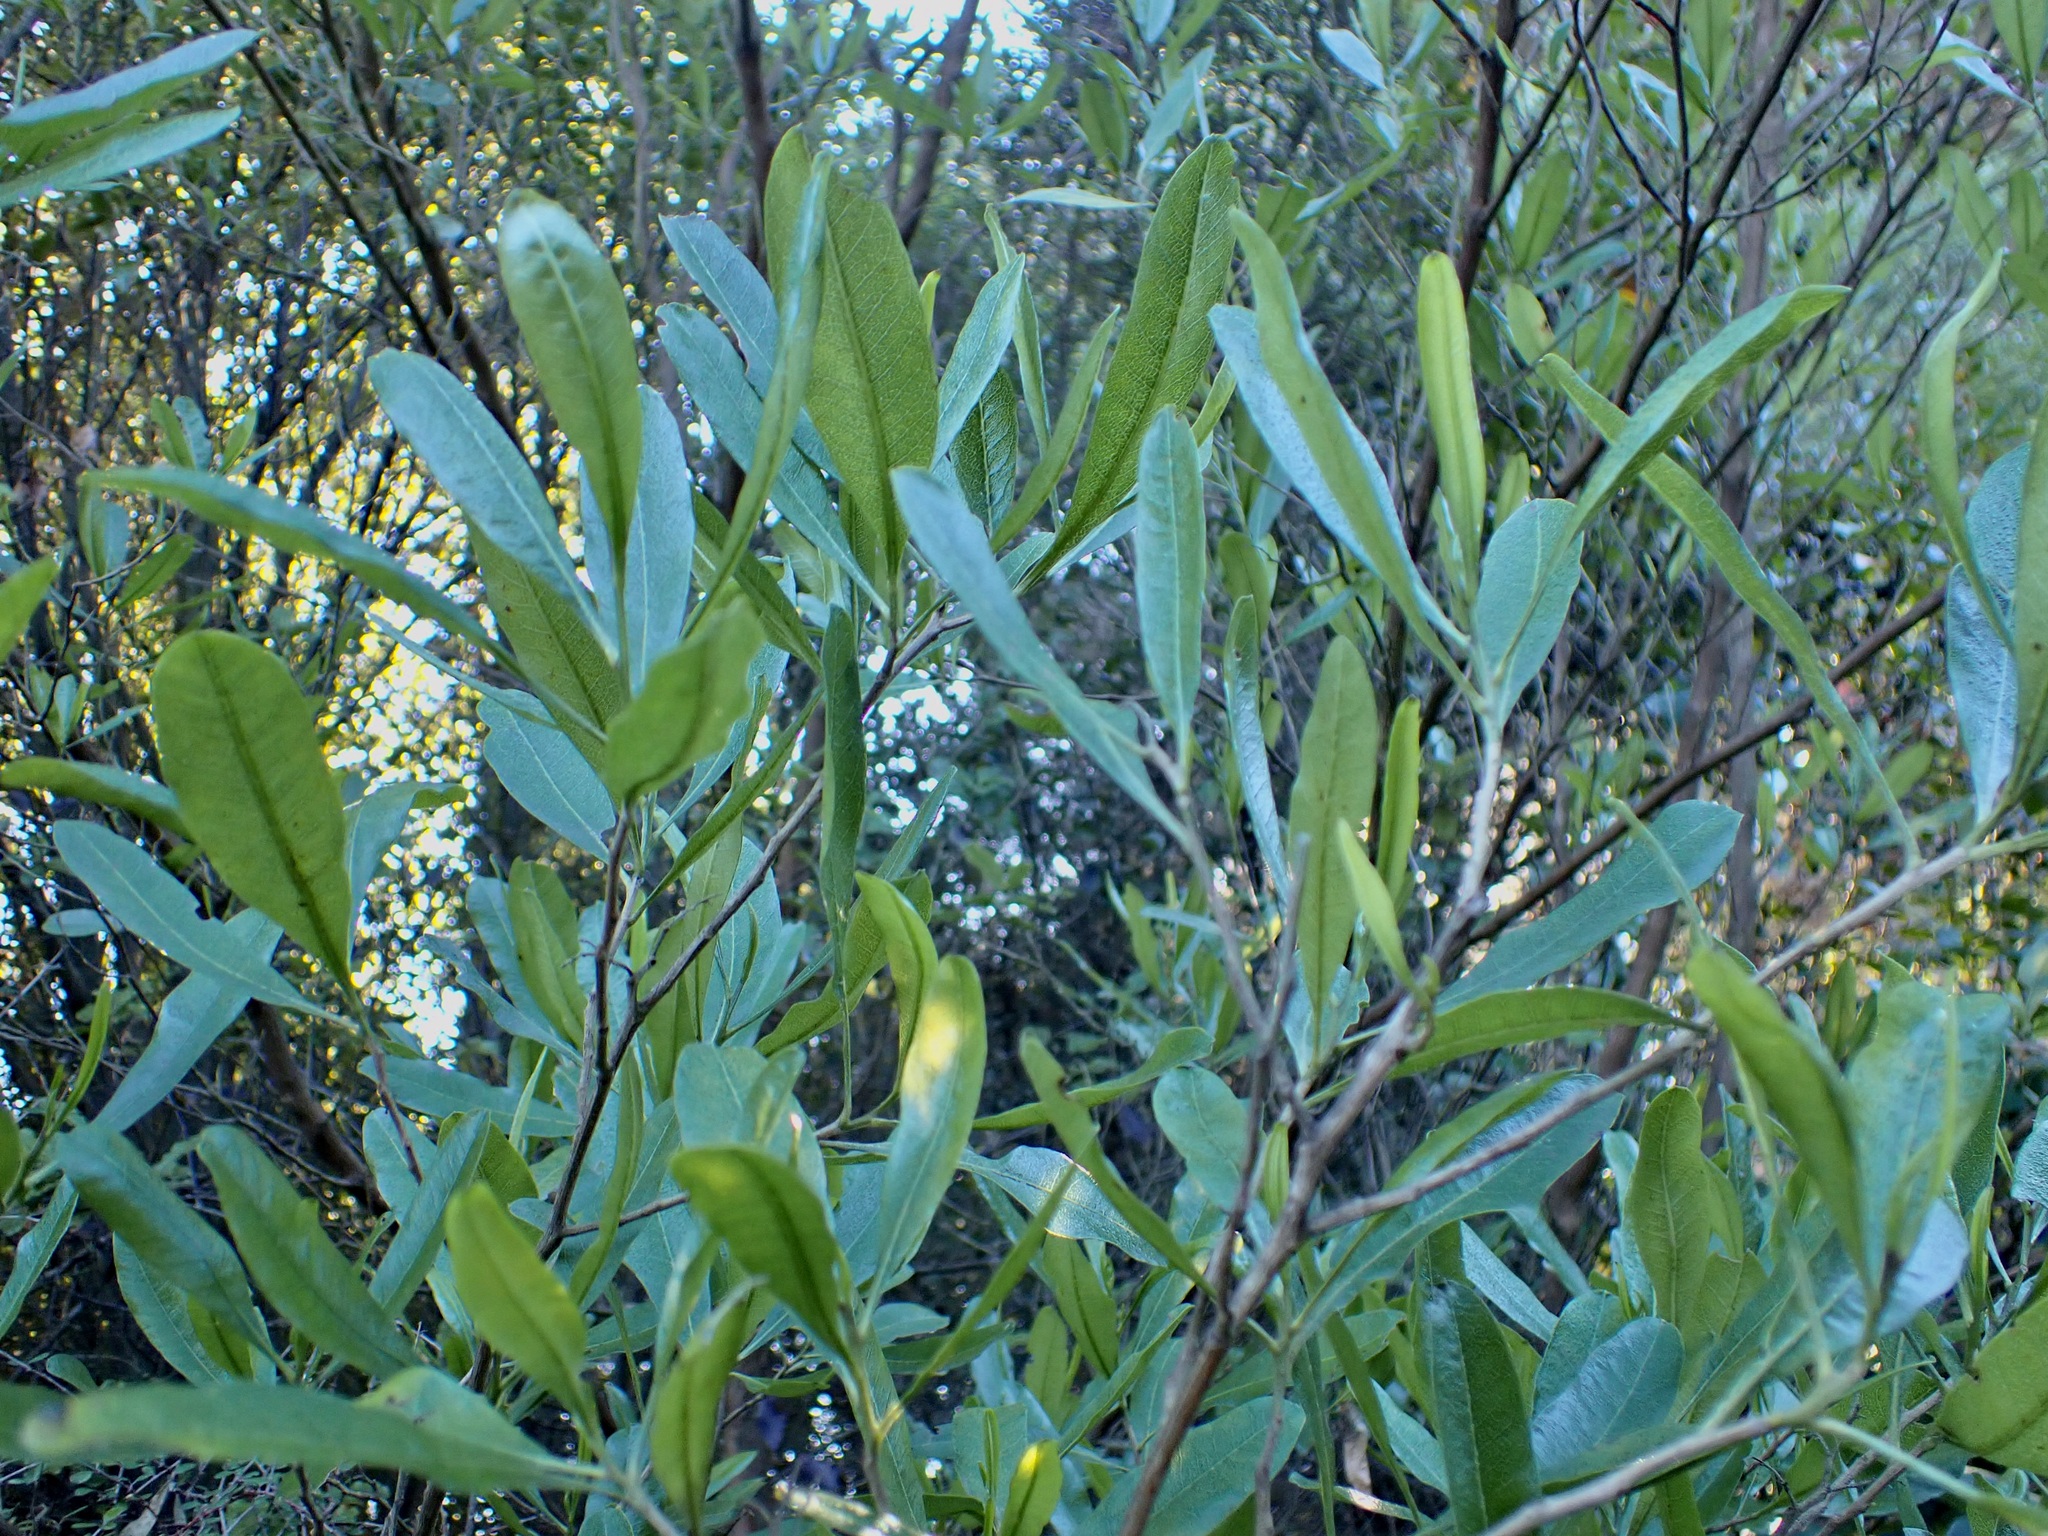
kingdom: Plantae
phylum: Tracheophyta
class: Magnoliopsida
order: Sapindales
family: Sapindaceae
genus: Dodonaea
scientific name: Dodonaea viscosa
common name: Hopbush
